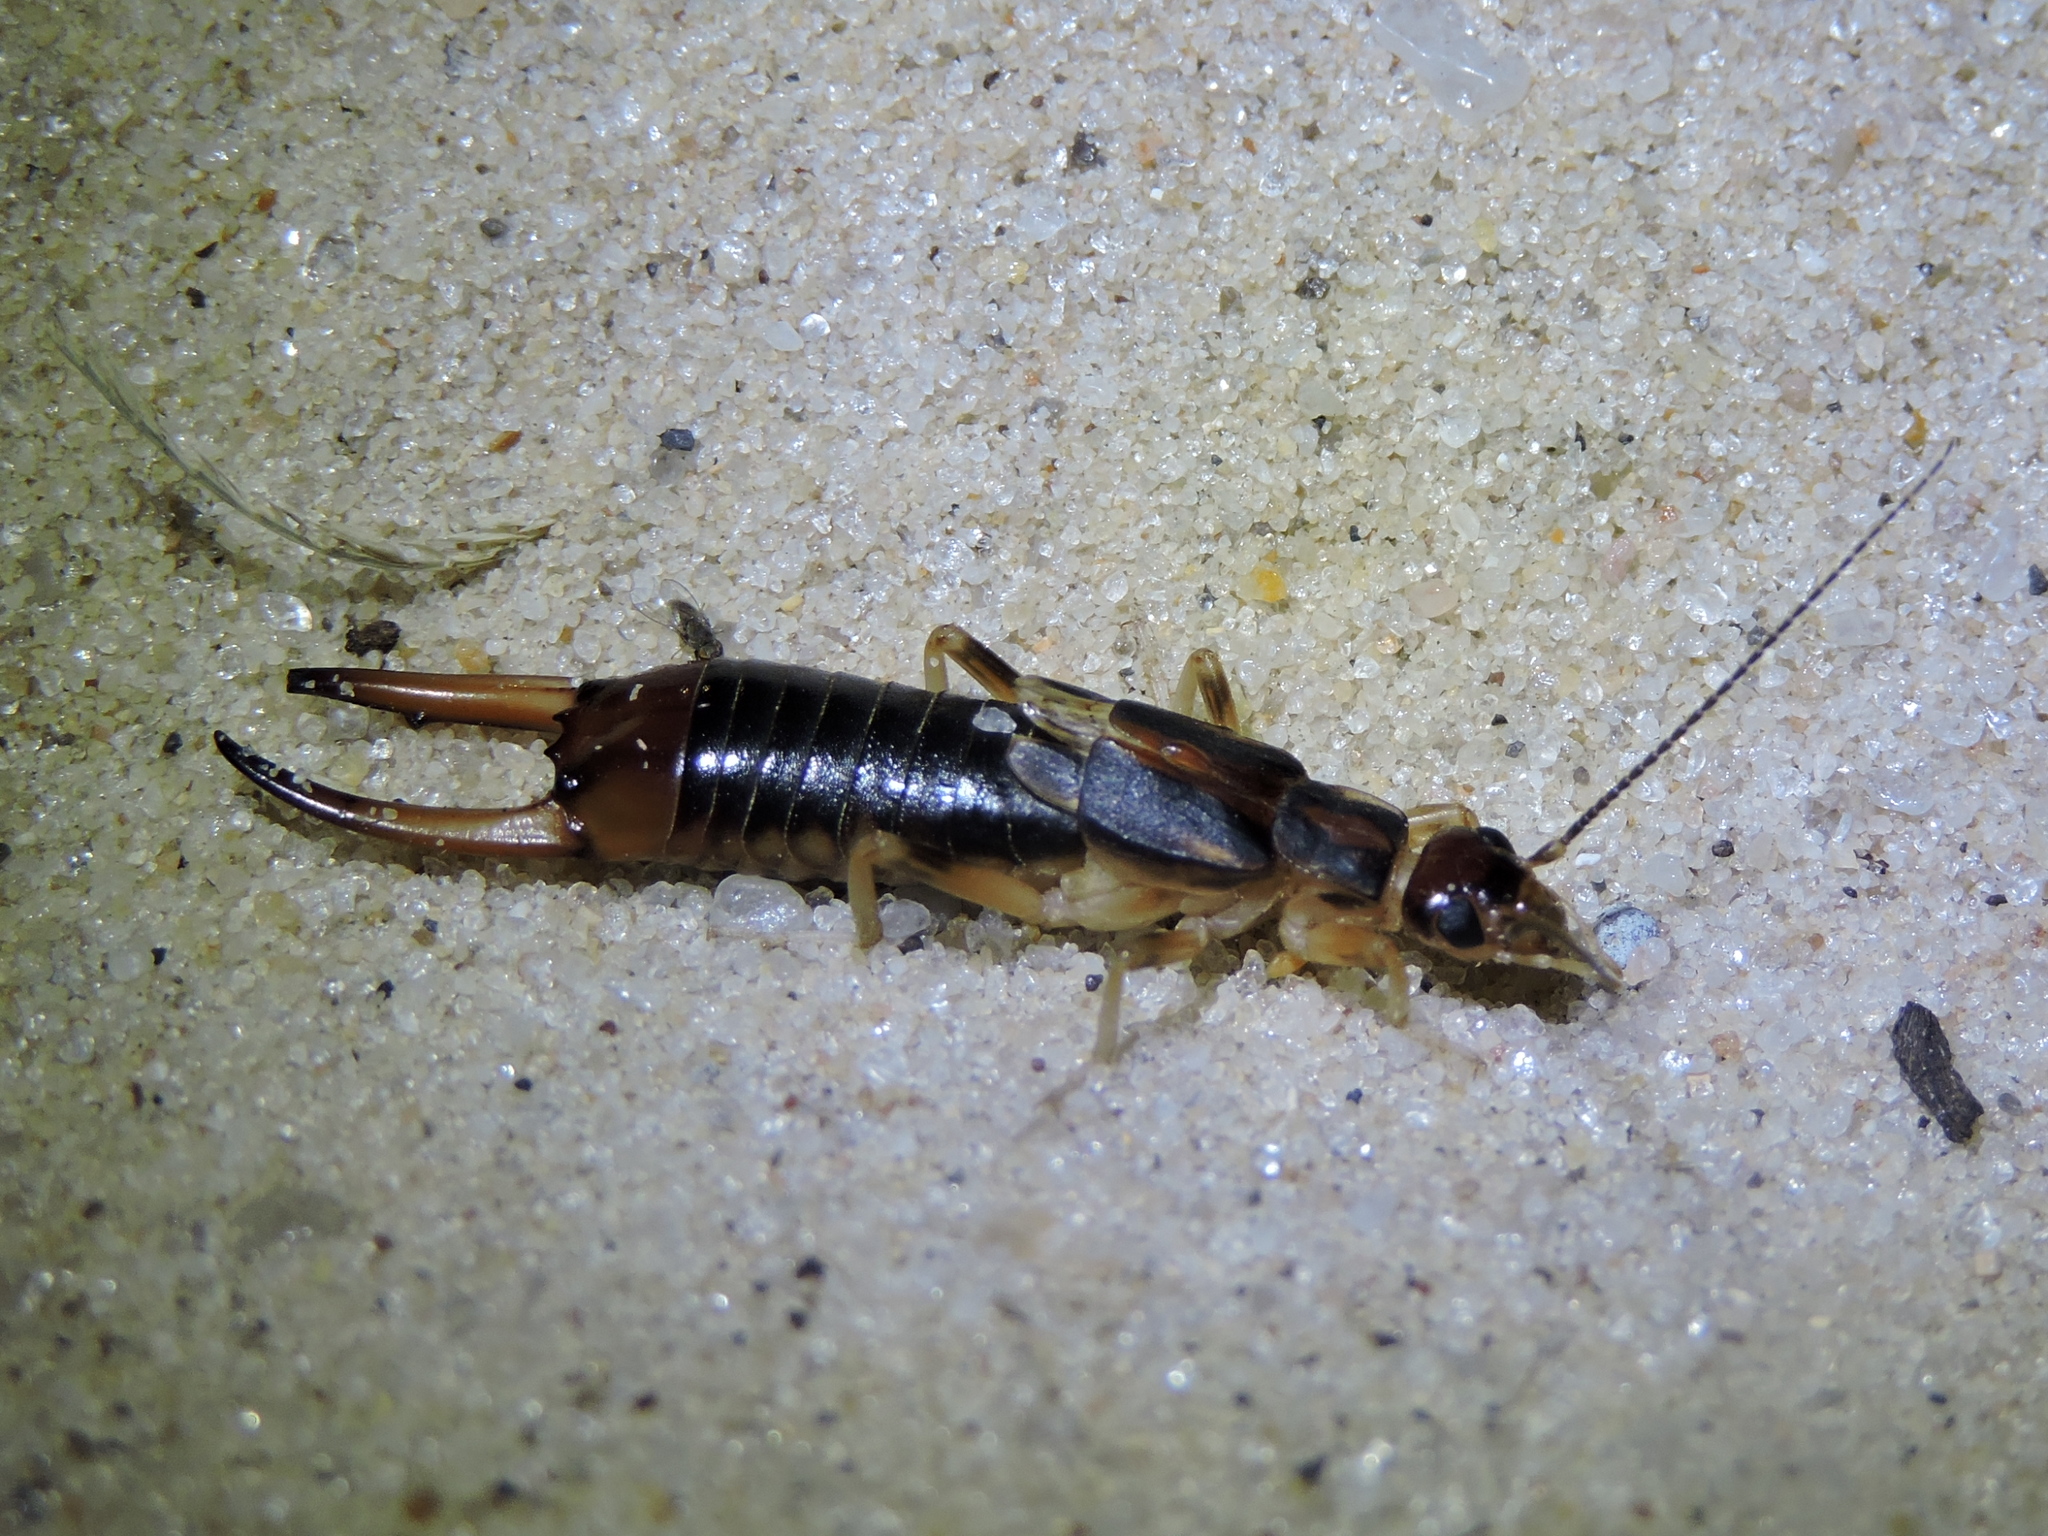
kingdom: Animalia
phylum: Arthropoda
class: Insecta
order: Dermaptera
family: Labiduridae
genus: Labidura
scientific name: Labidura riparia
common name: Striped earwig
